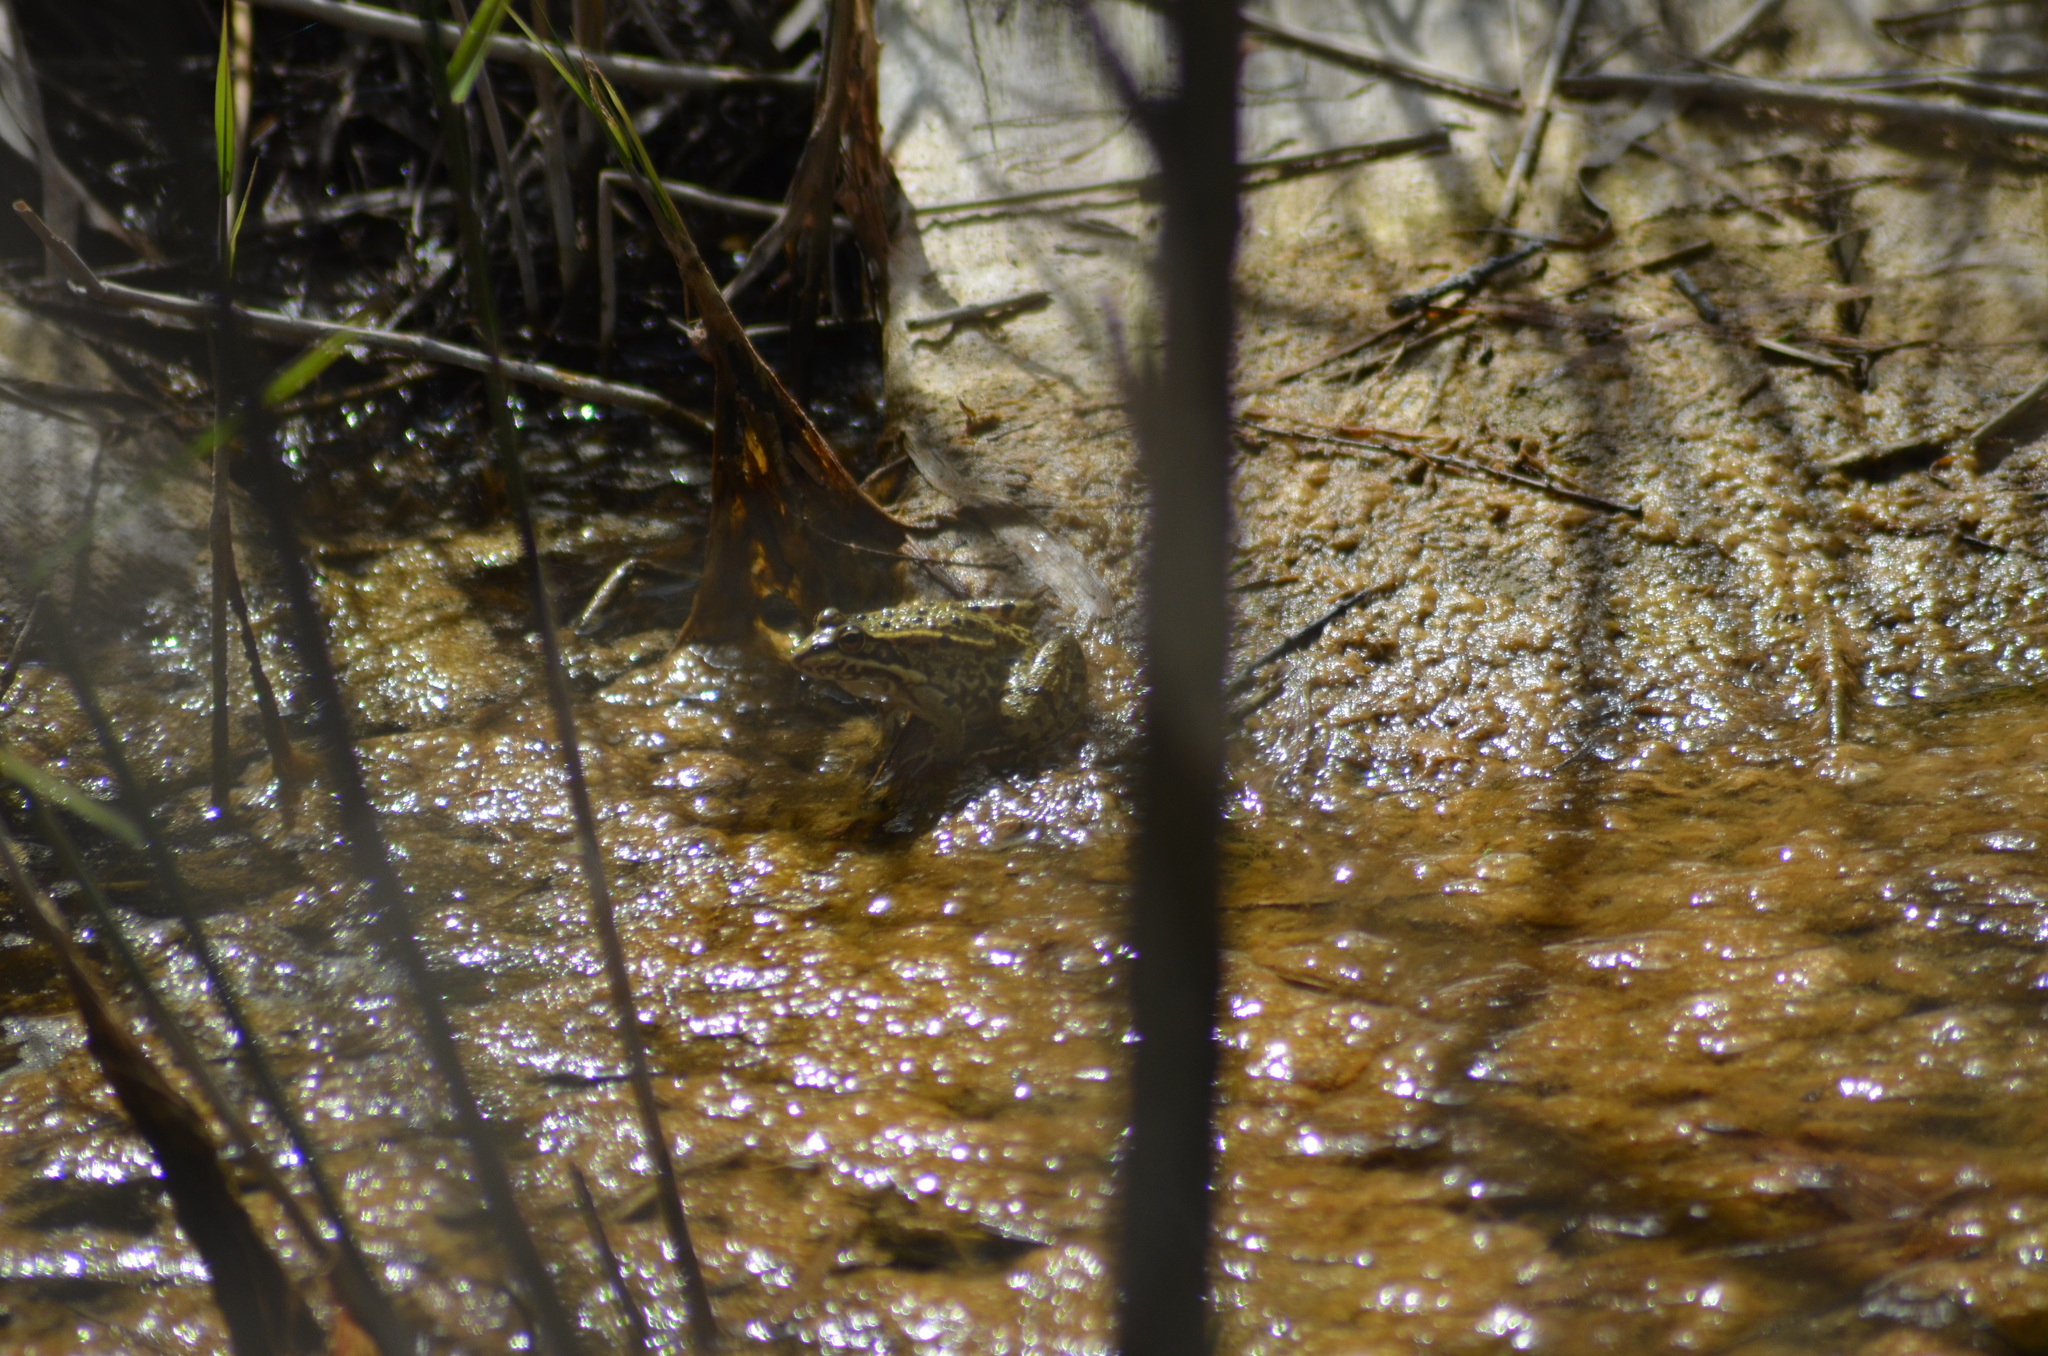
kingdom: Animalia
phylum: Chordata
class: Amphibia
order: Anura
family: Ranidae
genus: Pelophylax
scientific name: Pelophylax perezi
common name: Perez's frog
